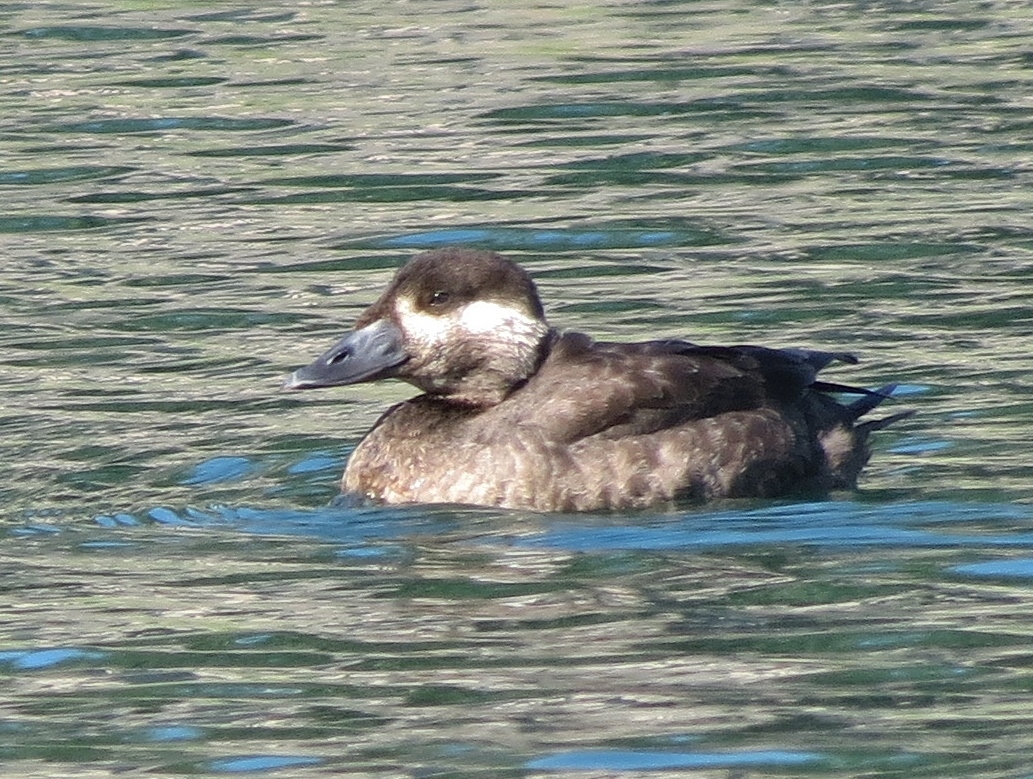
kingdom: Animalia
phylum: Chordata
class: Aves
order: Anseriformes
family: Anatidae
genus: Melanitta
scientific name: Melanitta perspicillata
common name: Surf scoter
